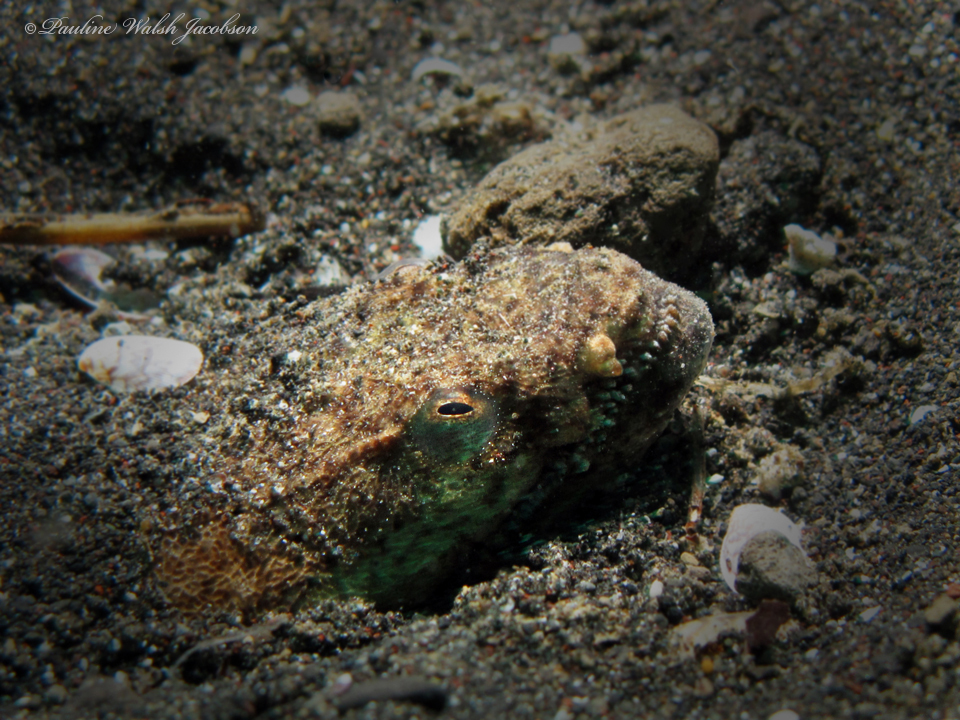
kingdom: Animalia
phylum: Chordata
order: Anguilliformes
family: Ophichthidae
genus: Brachysomophis
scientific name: Brachysomophis cirrocheilos
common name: Stargazer snake eel
